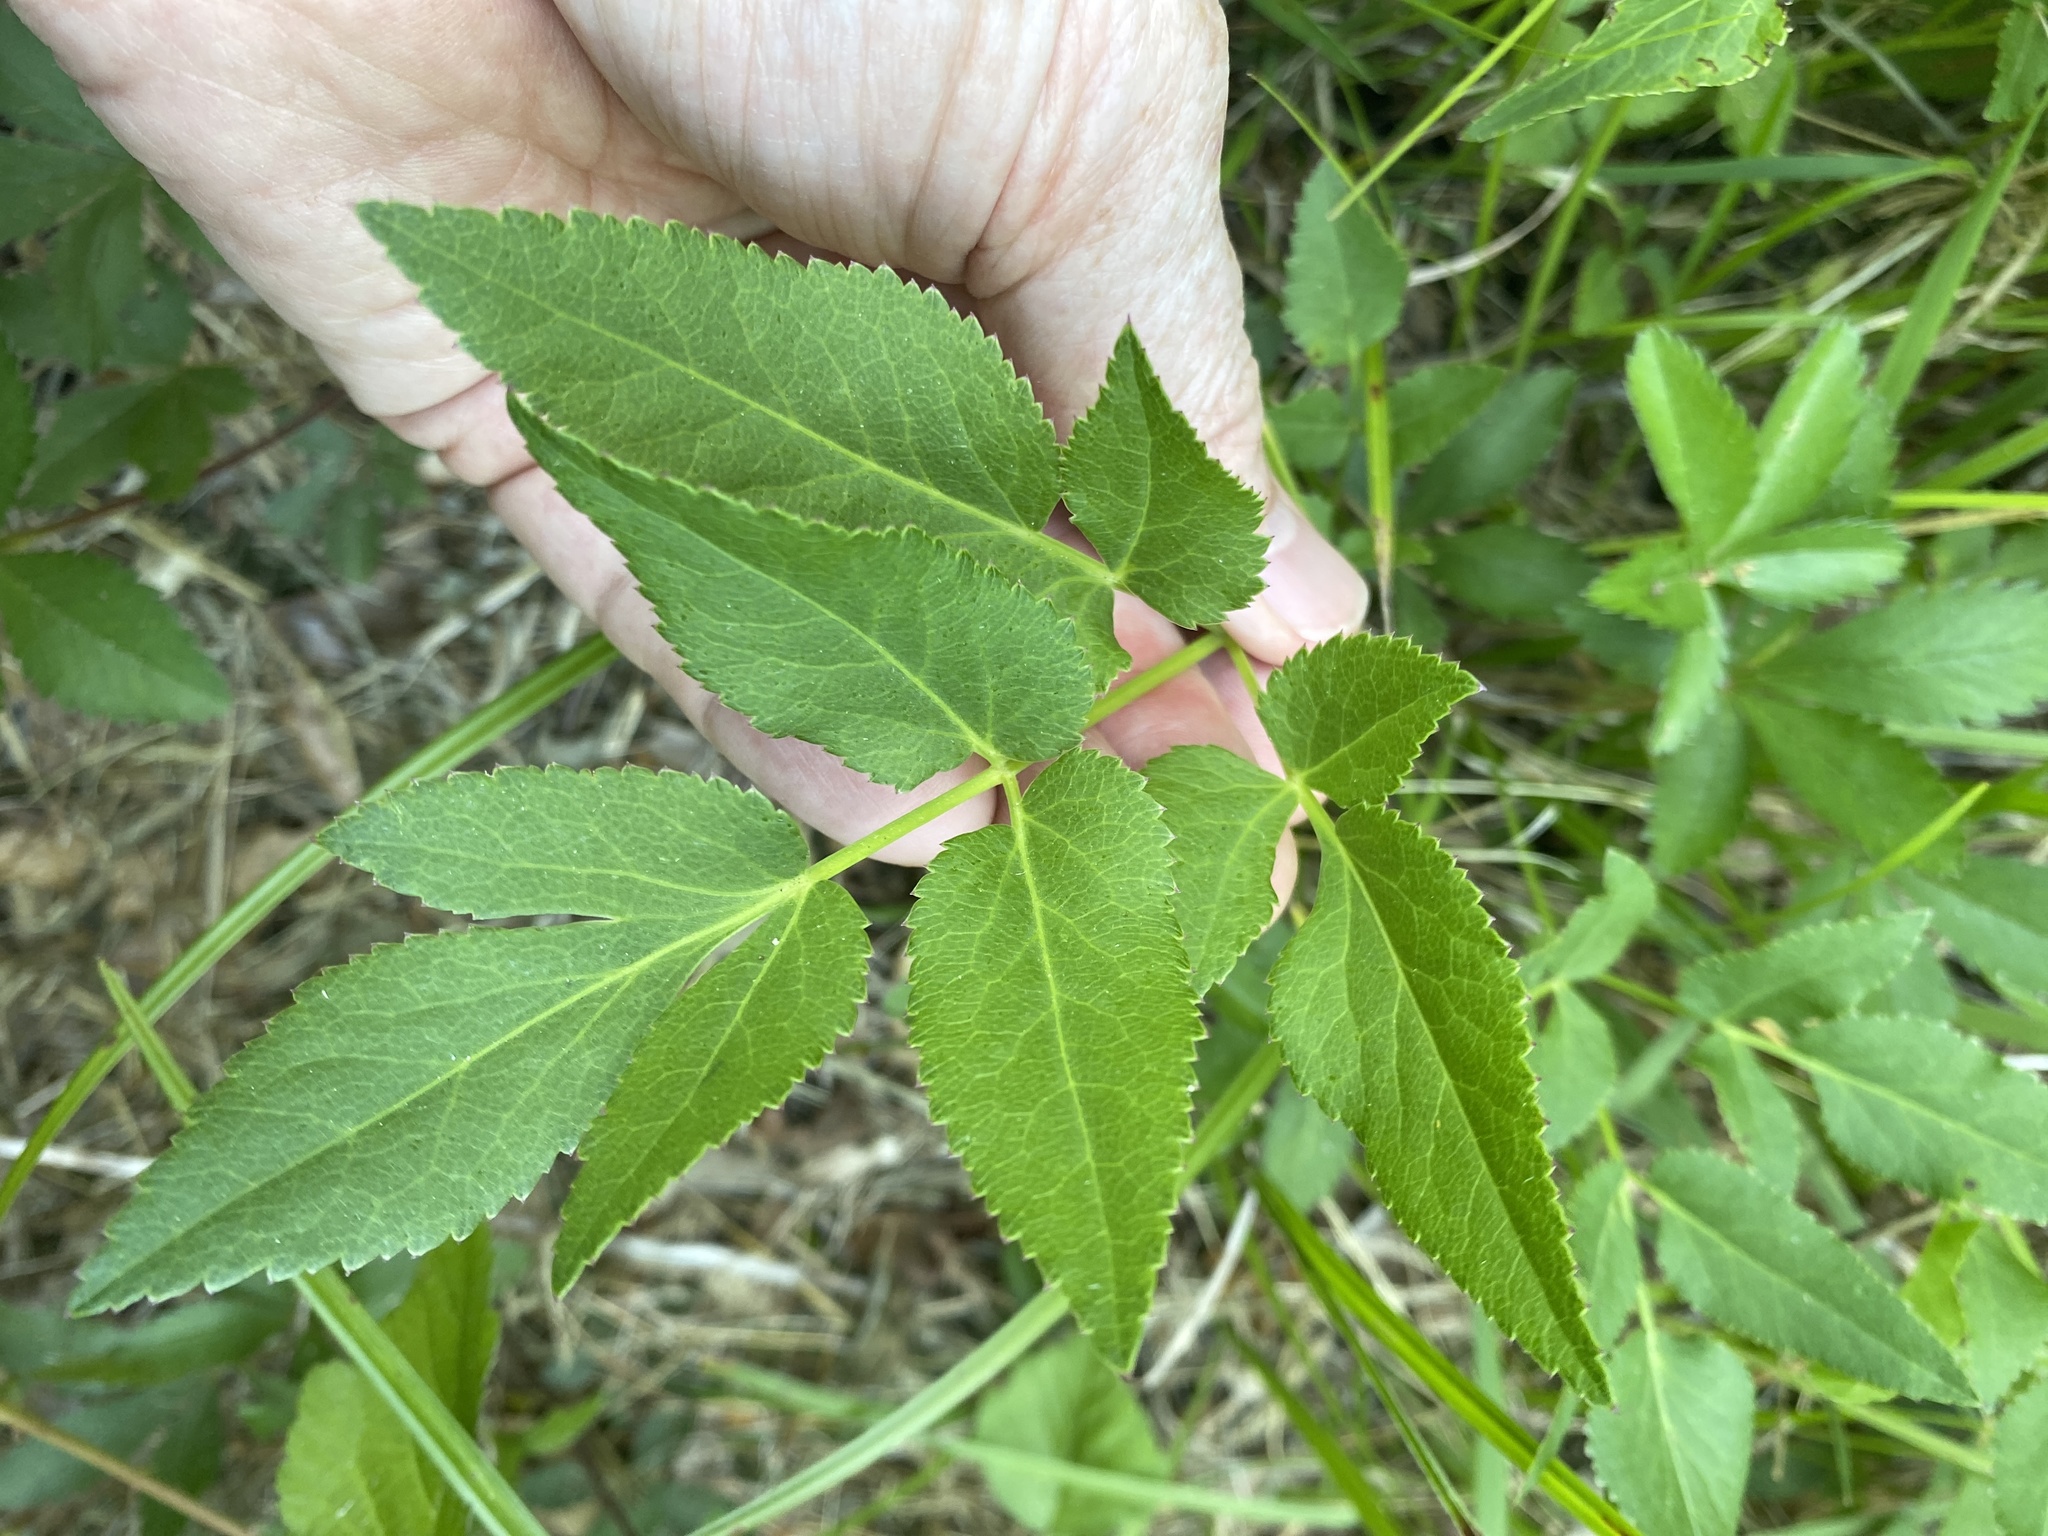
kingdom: Plantae
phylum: Tracheophyta
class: Magnoliopsida
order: Apiales
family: Apiaceae
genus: Zizia
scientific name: Zizia aurea
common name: Golden alexanders
